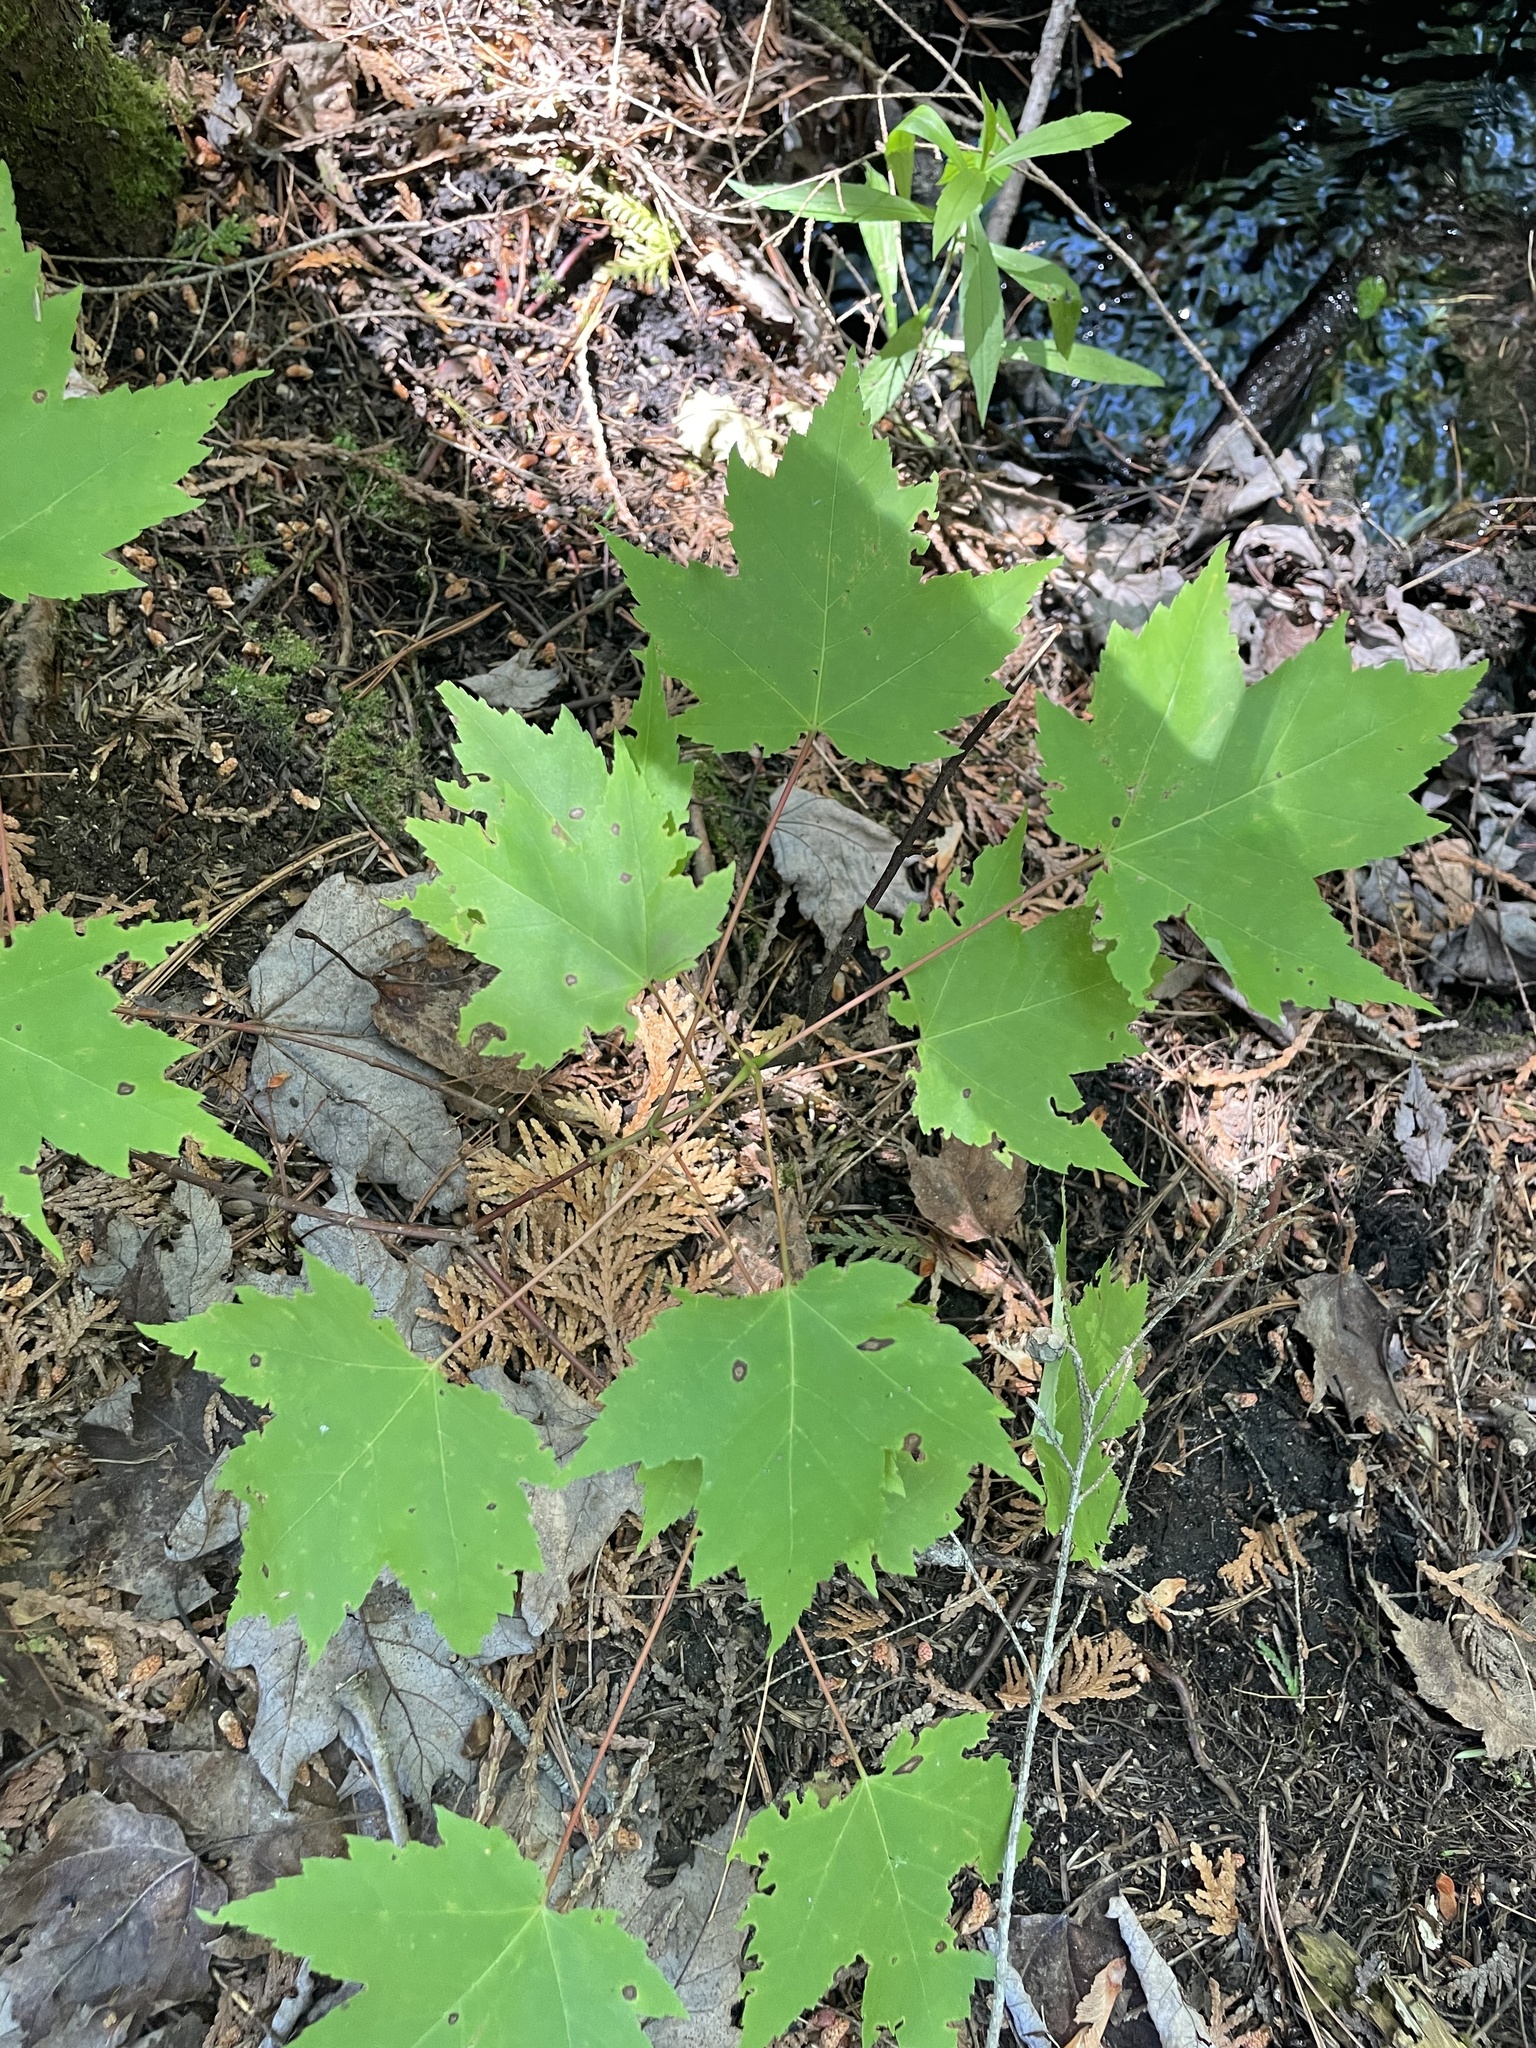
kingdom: Plantae
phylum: Tracheophyta
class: Magnoliopsida
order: Sapindales
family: Sapindaceae
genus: Acer
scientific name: Acer rubrum
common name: Red maple
